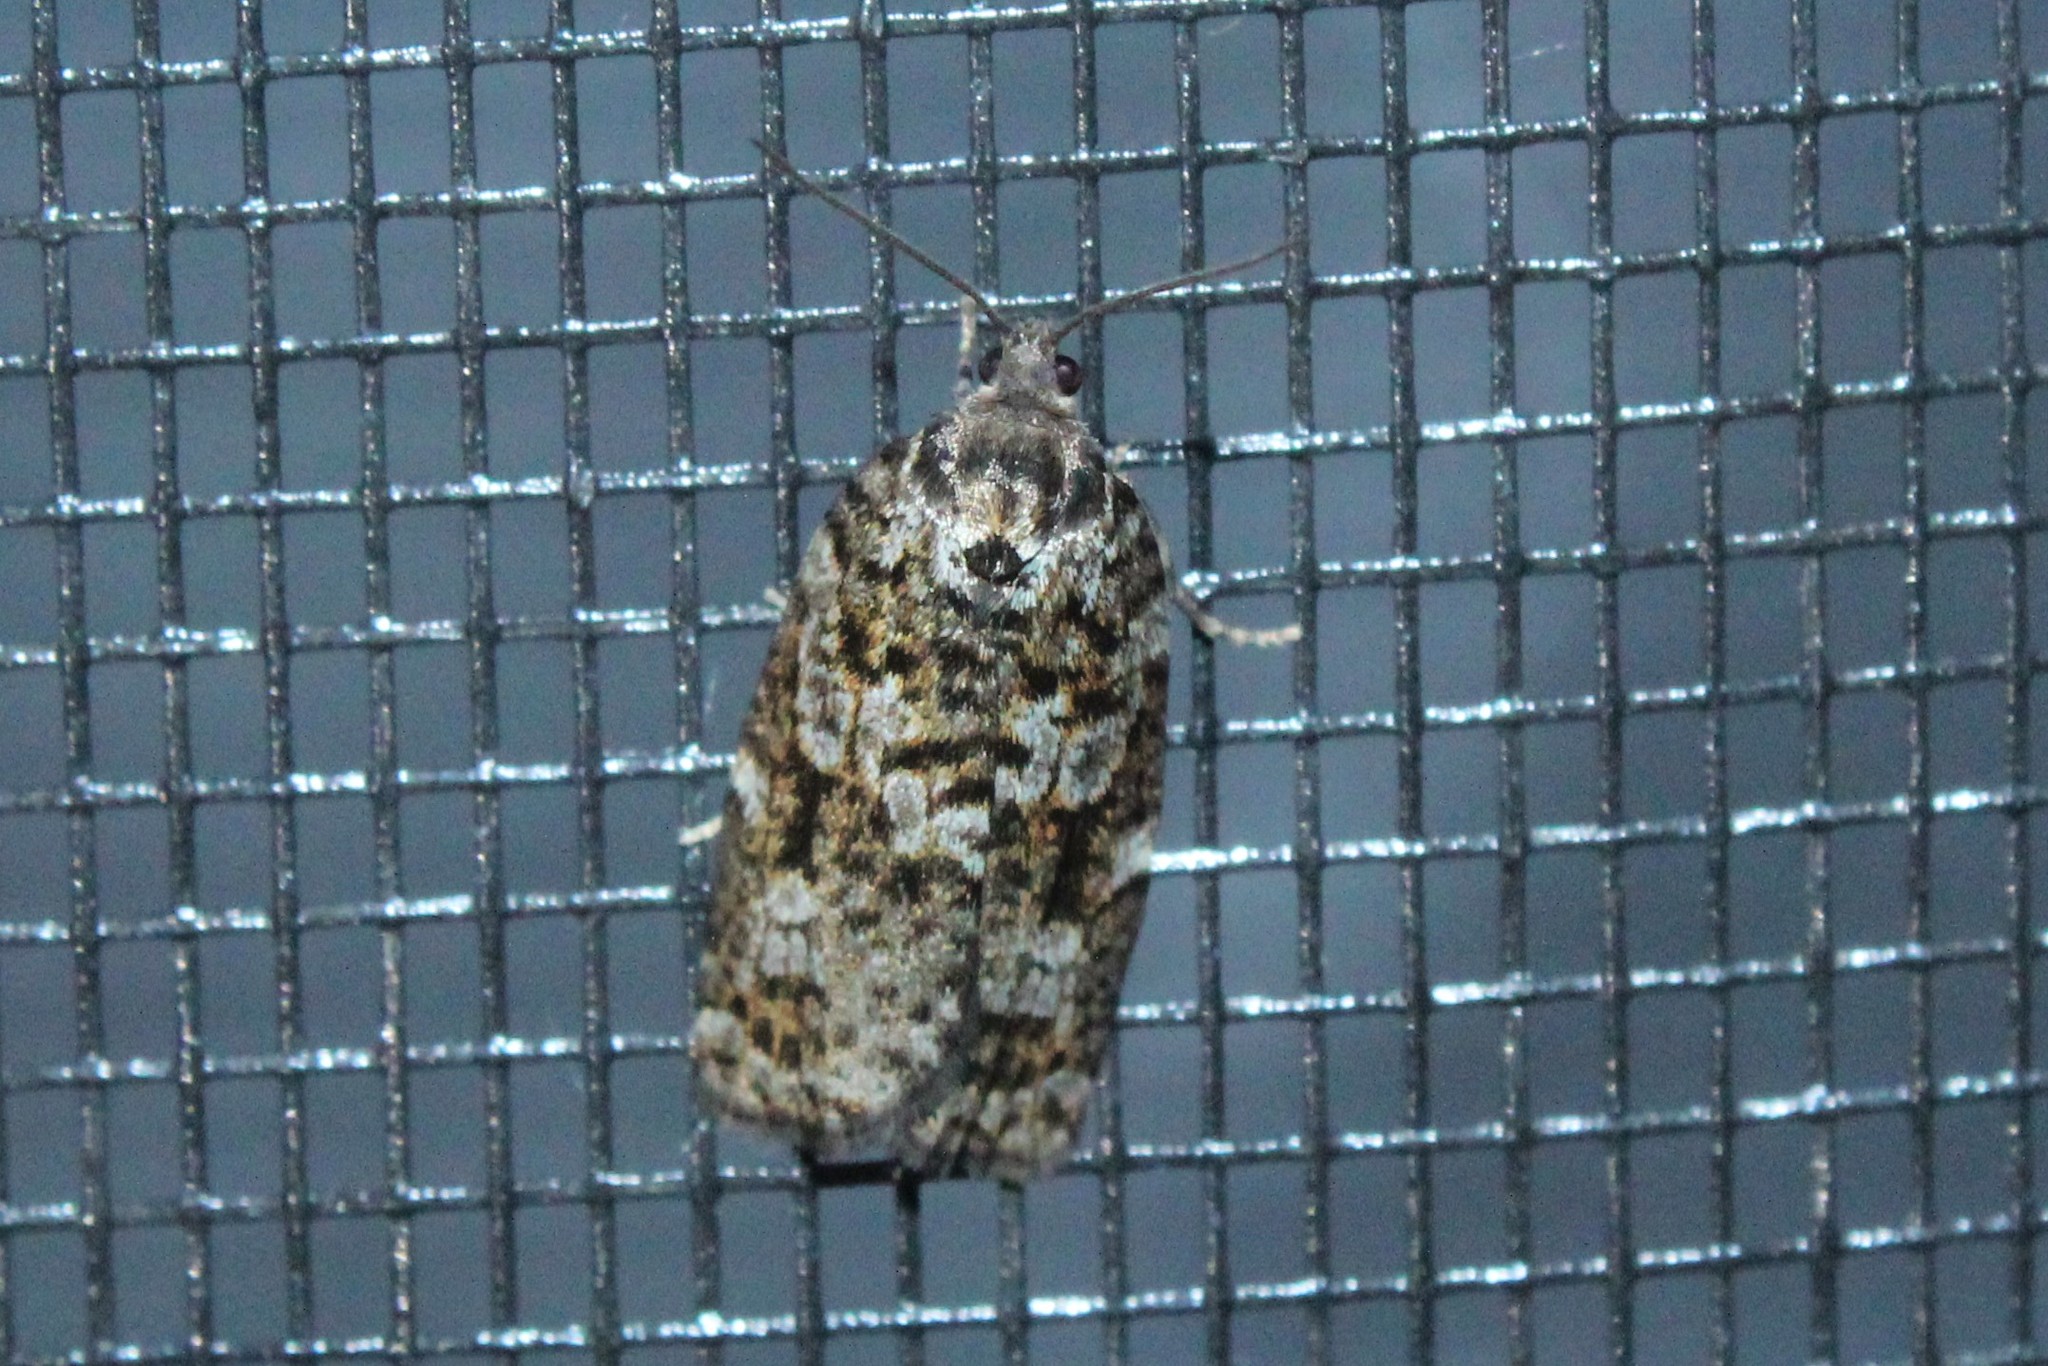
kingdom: Animalia
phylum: Arthropoda
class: Insecta
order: Lepidoptera
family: Tortricidae
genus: Choristoneura
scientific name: Choristoneura fumiferana
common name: Spruce budworm
